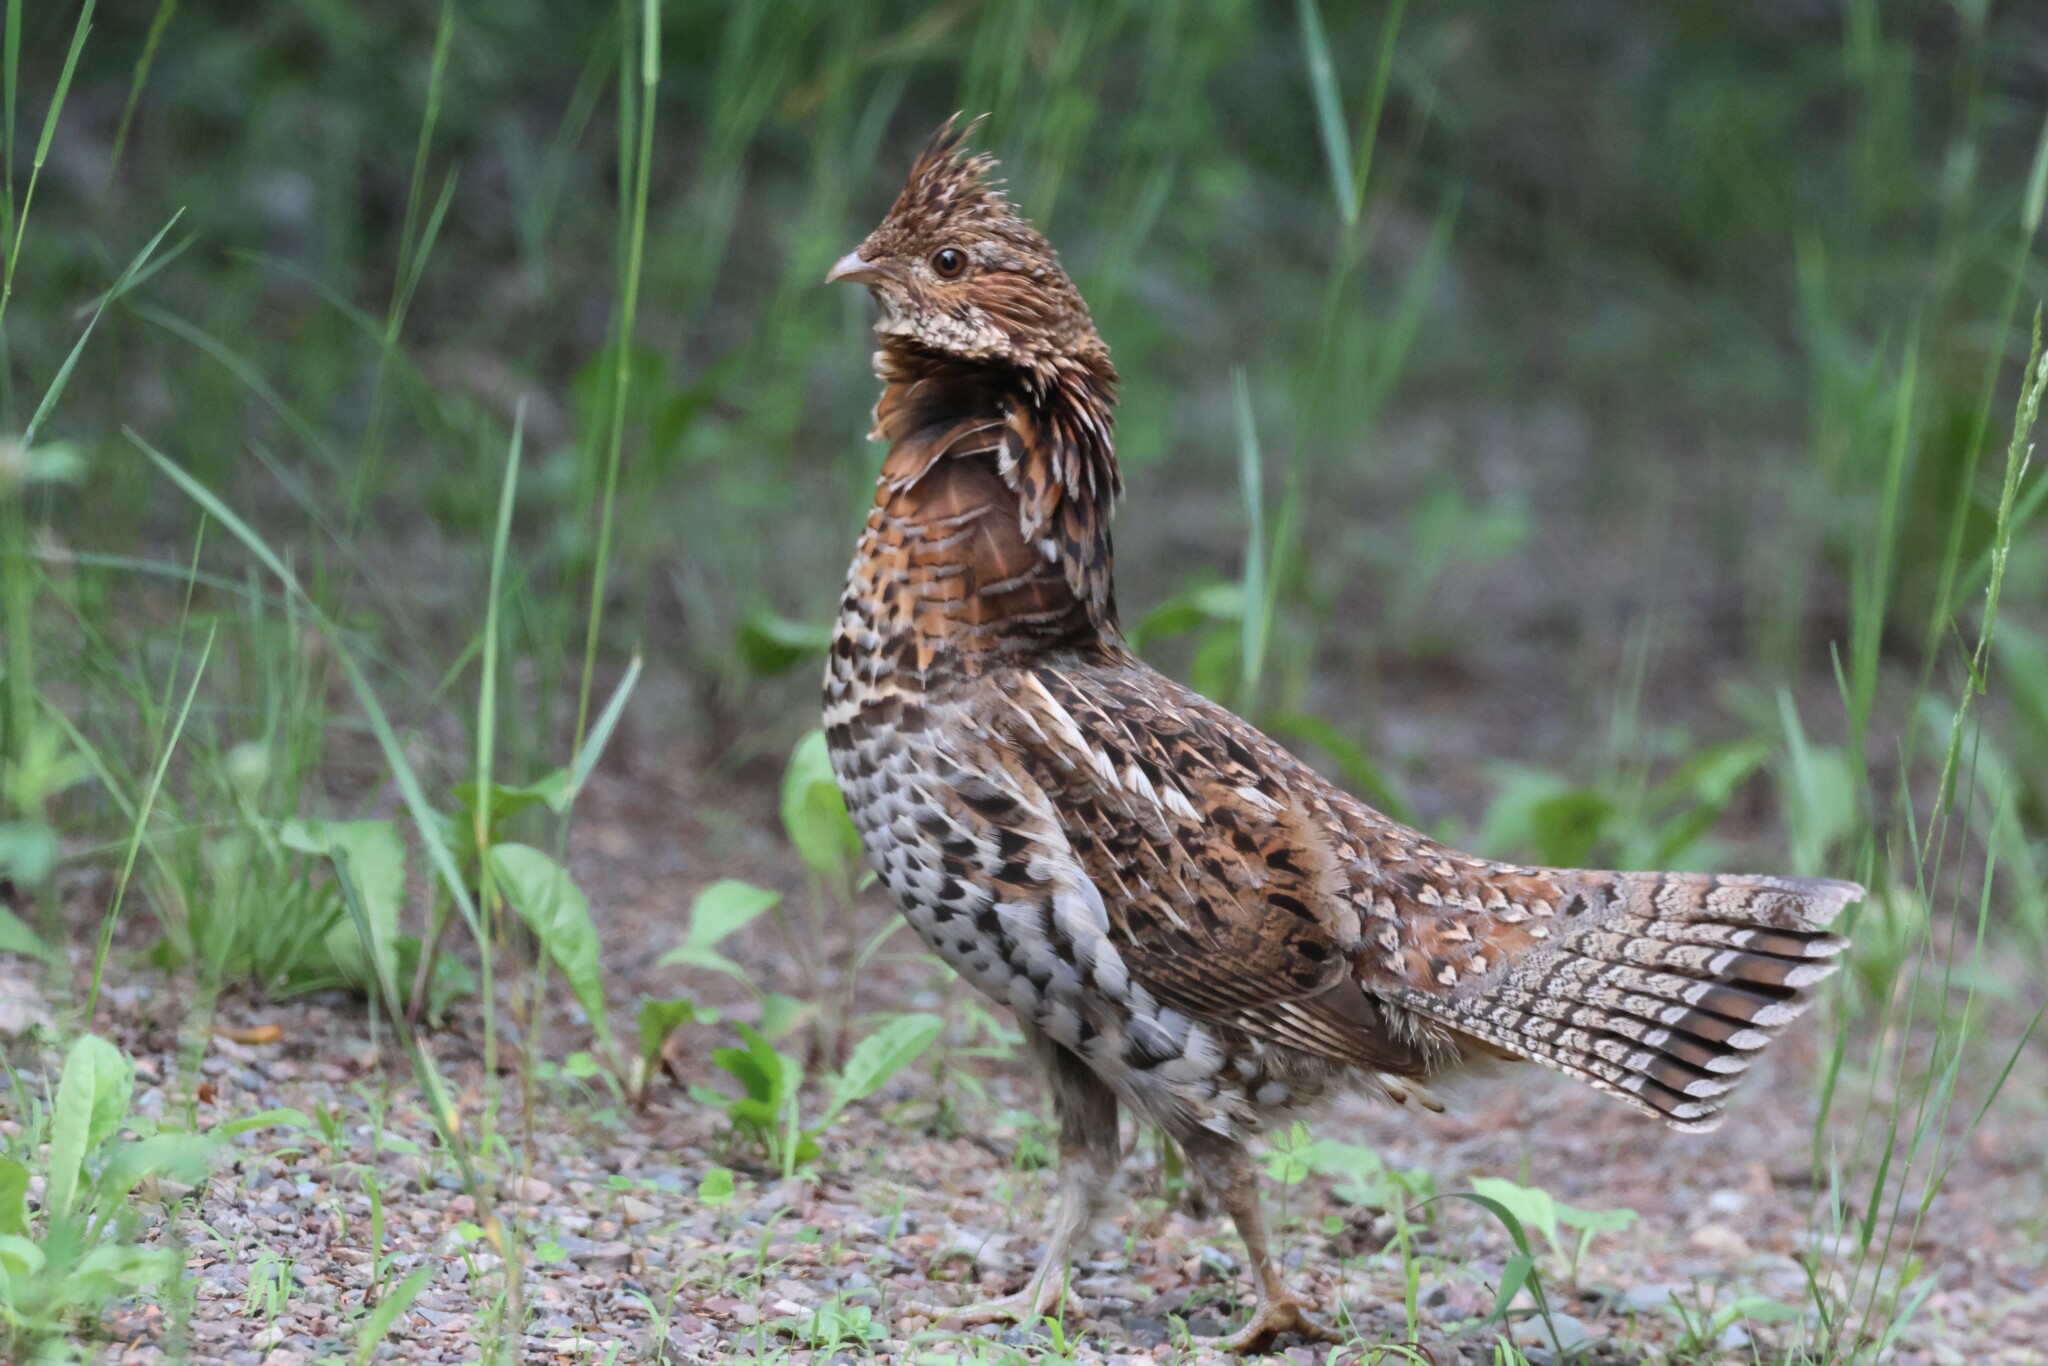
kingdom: Animalia
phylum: Chordata
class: Aves
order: Galliformes
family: Phasianidae
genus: Bonasa
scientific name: Bonasa umbellus
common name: Ruffed grouse
